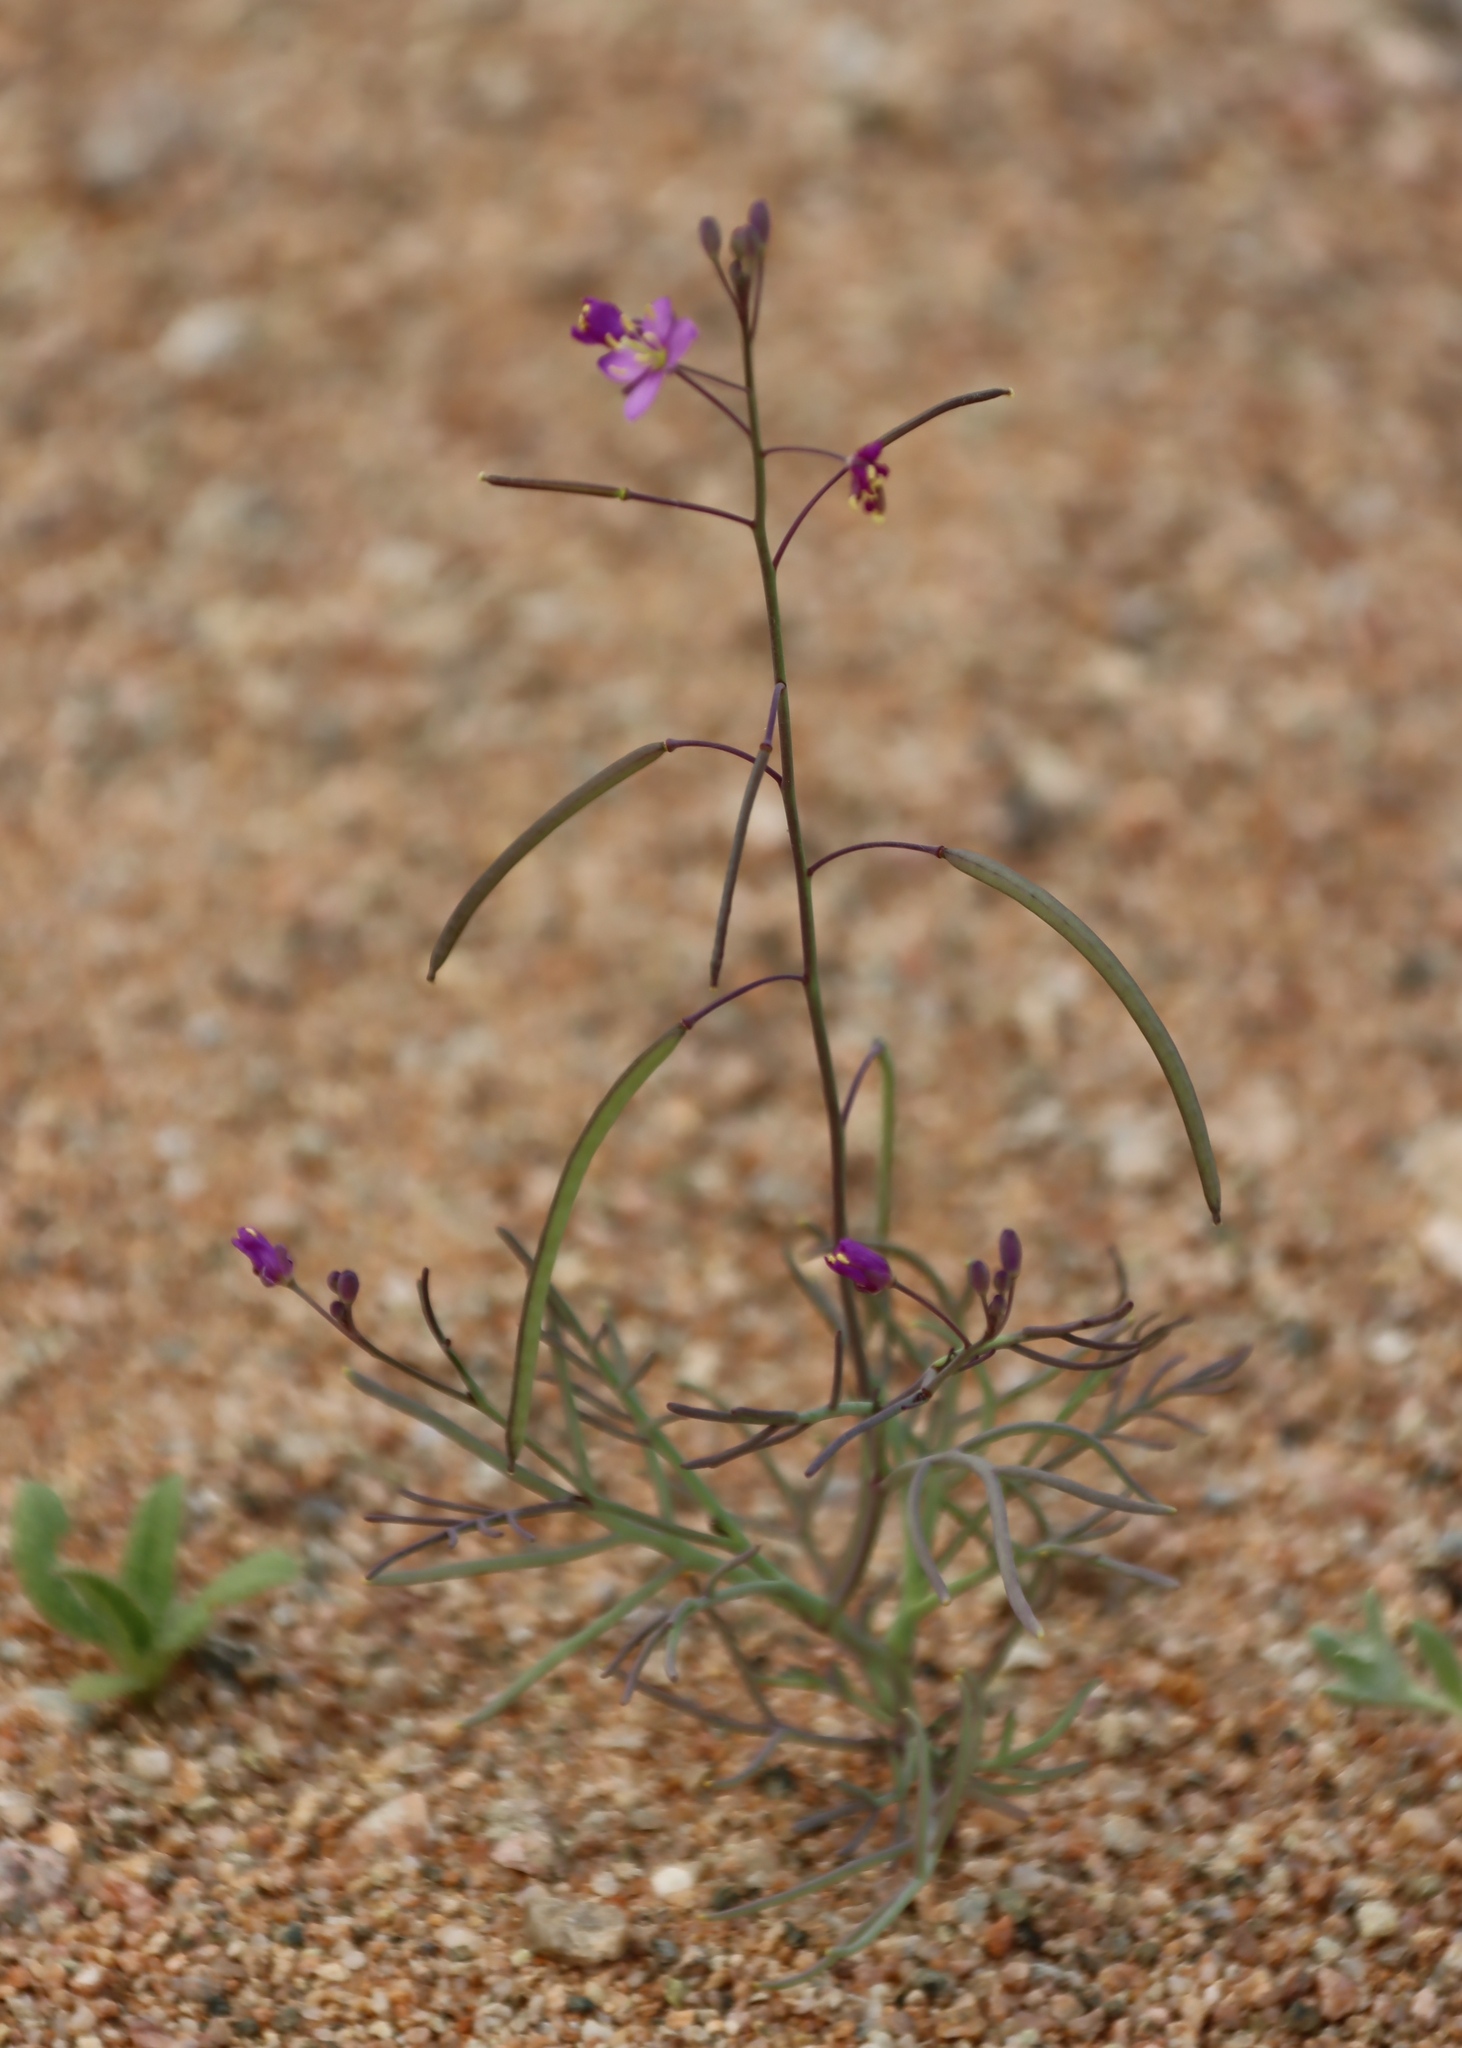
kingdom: Plantae
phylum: Tracheophyta
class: Magnoliopsida
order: Brassicales
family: Brassicaceae
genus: Heliophila
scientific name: Heliophila deserticola
